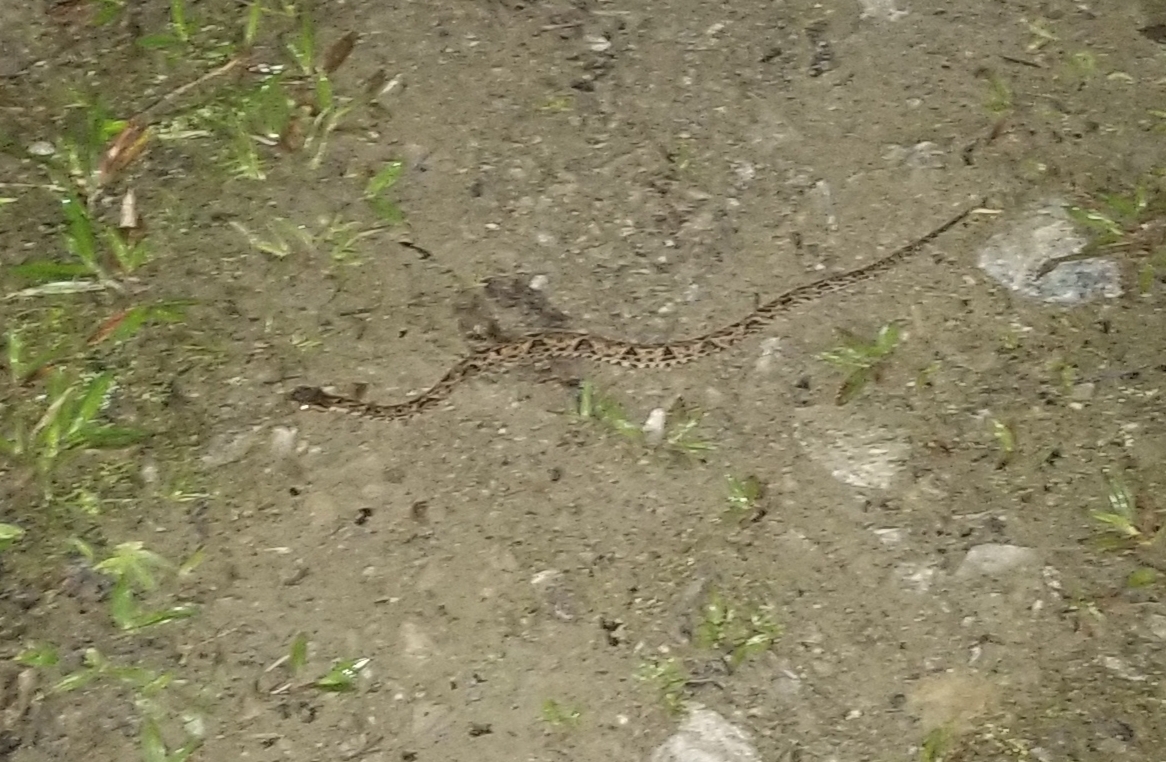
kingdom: Animalia
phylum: Chordata
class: Squamata
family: Viperidae
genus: Bothrops
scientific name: Bothrops asper
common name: Terciopelo
